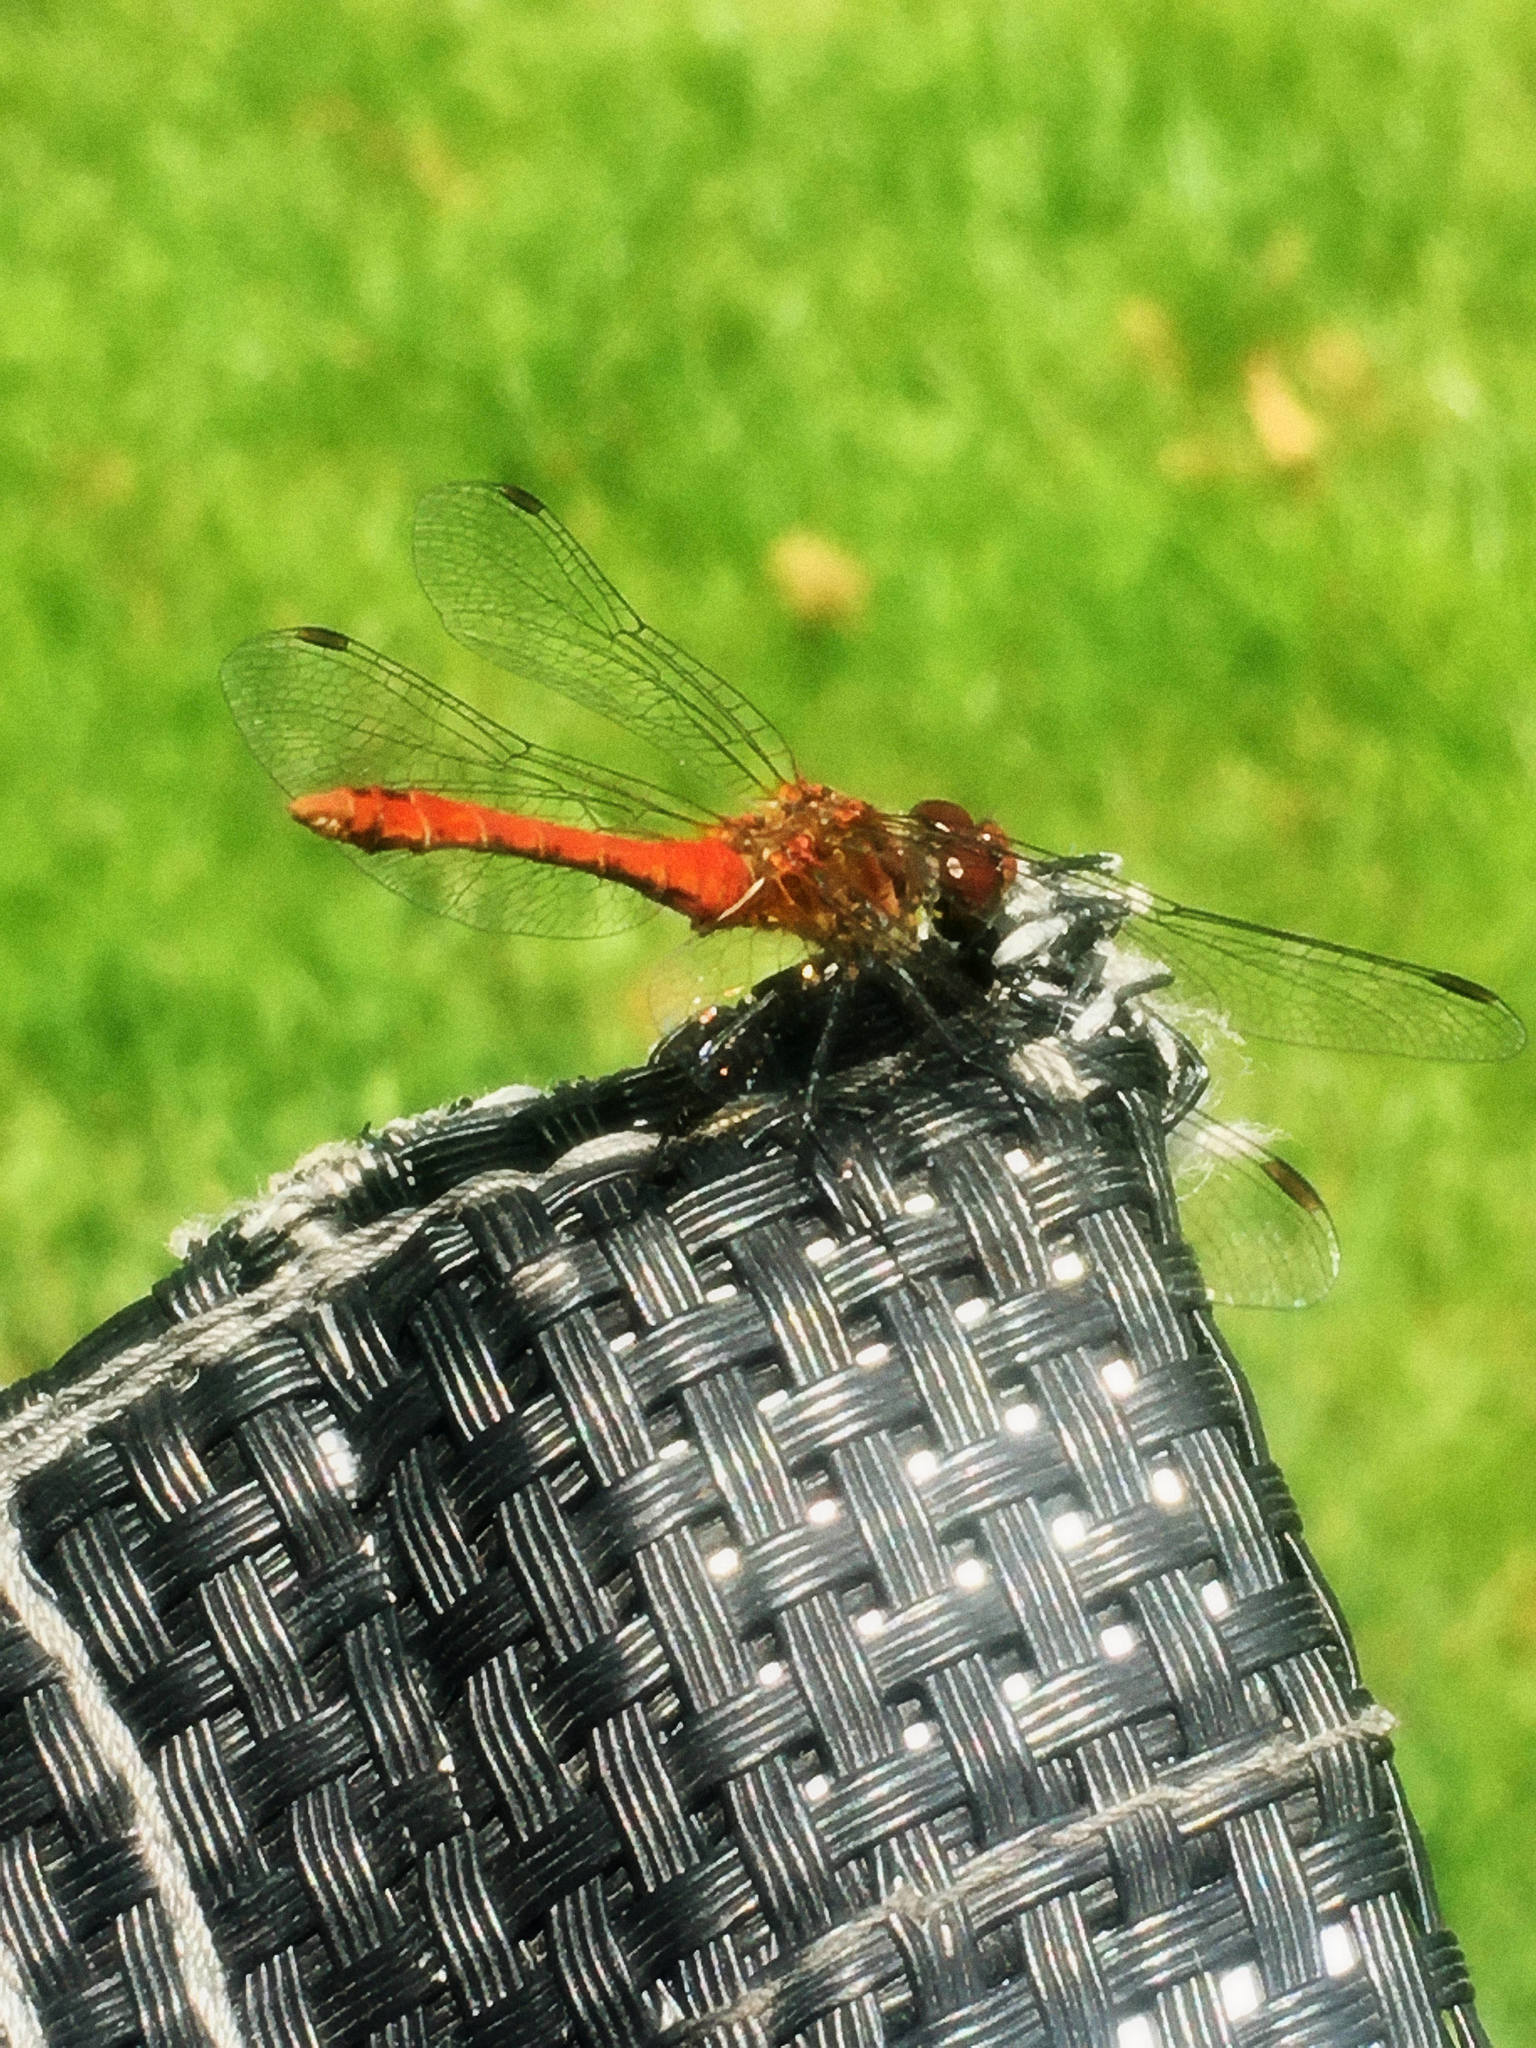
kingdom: Animalia
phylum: Arthropoda
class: Insecta
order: Odonata
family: Libellulidae
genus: Sympetrum
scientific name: Sympetrum sanguineum
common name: Ruddy darter
